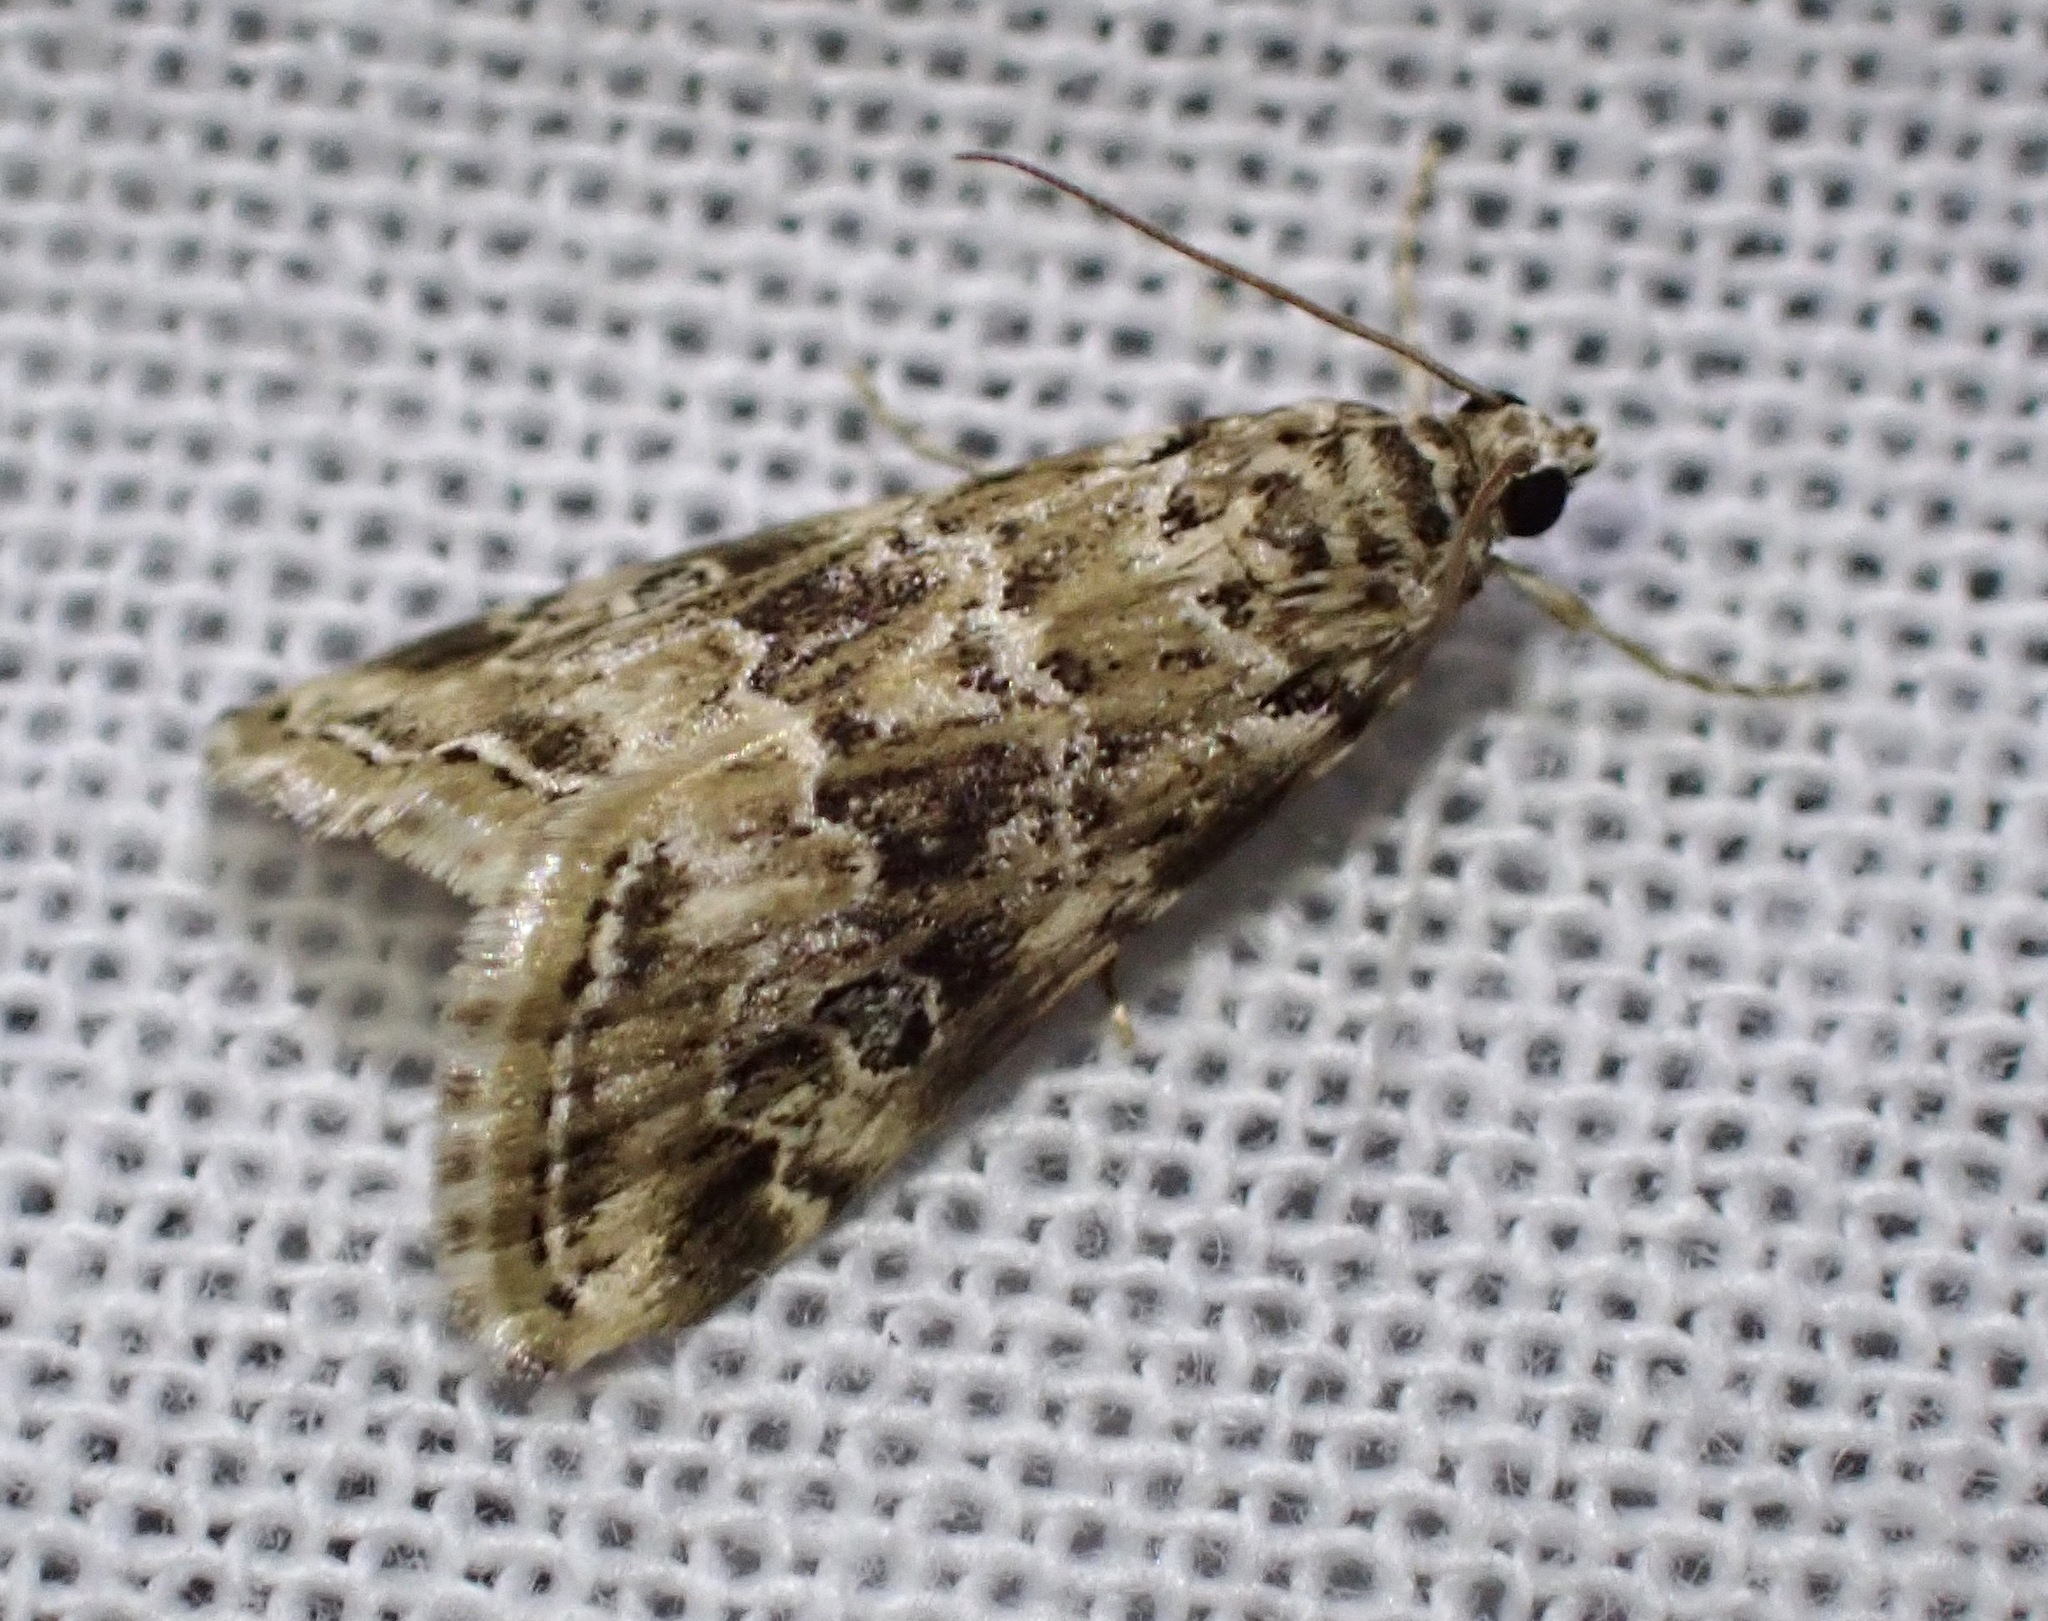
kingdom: Animalia
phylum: Arthropoda
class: Insecta
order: Lepidoptera
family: Crambidae
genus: Hellula
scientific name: Hellula rogatalis
